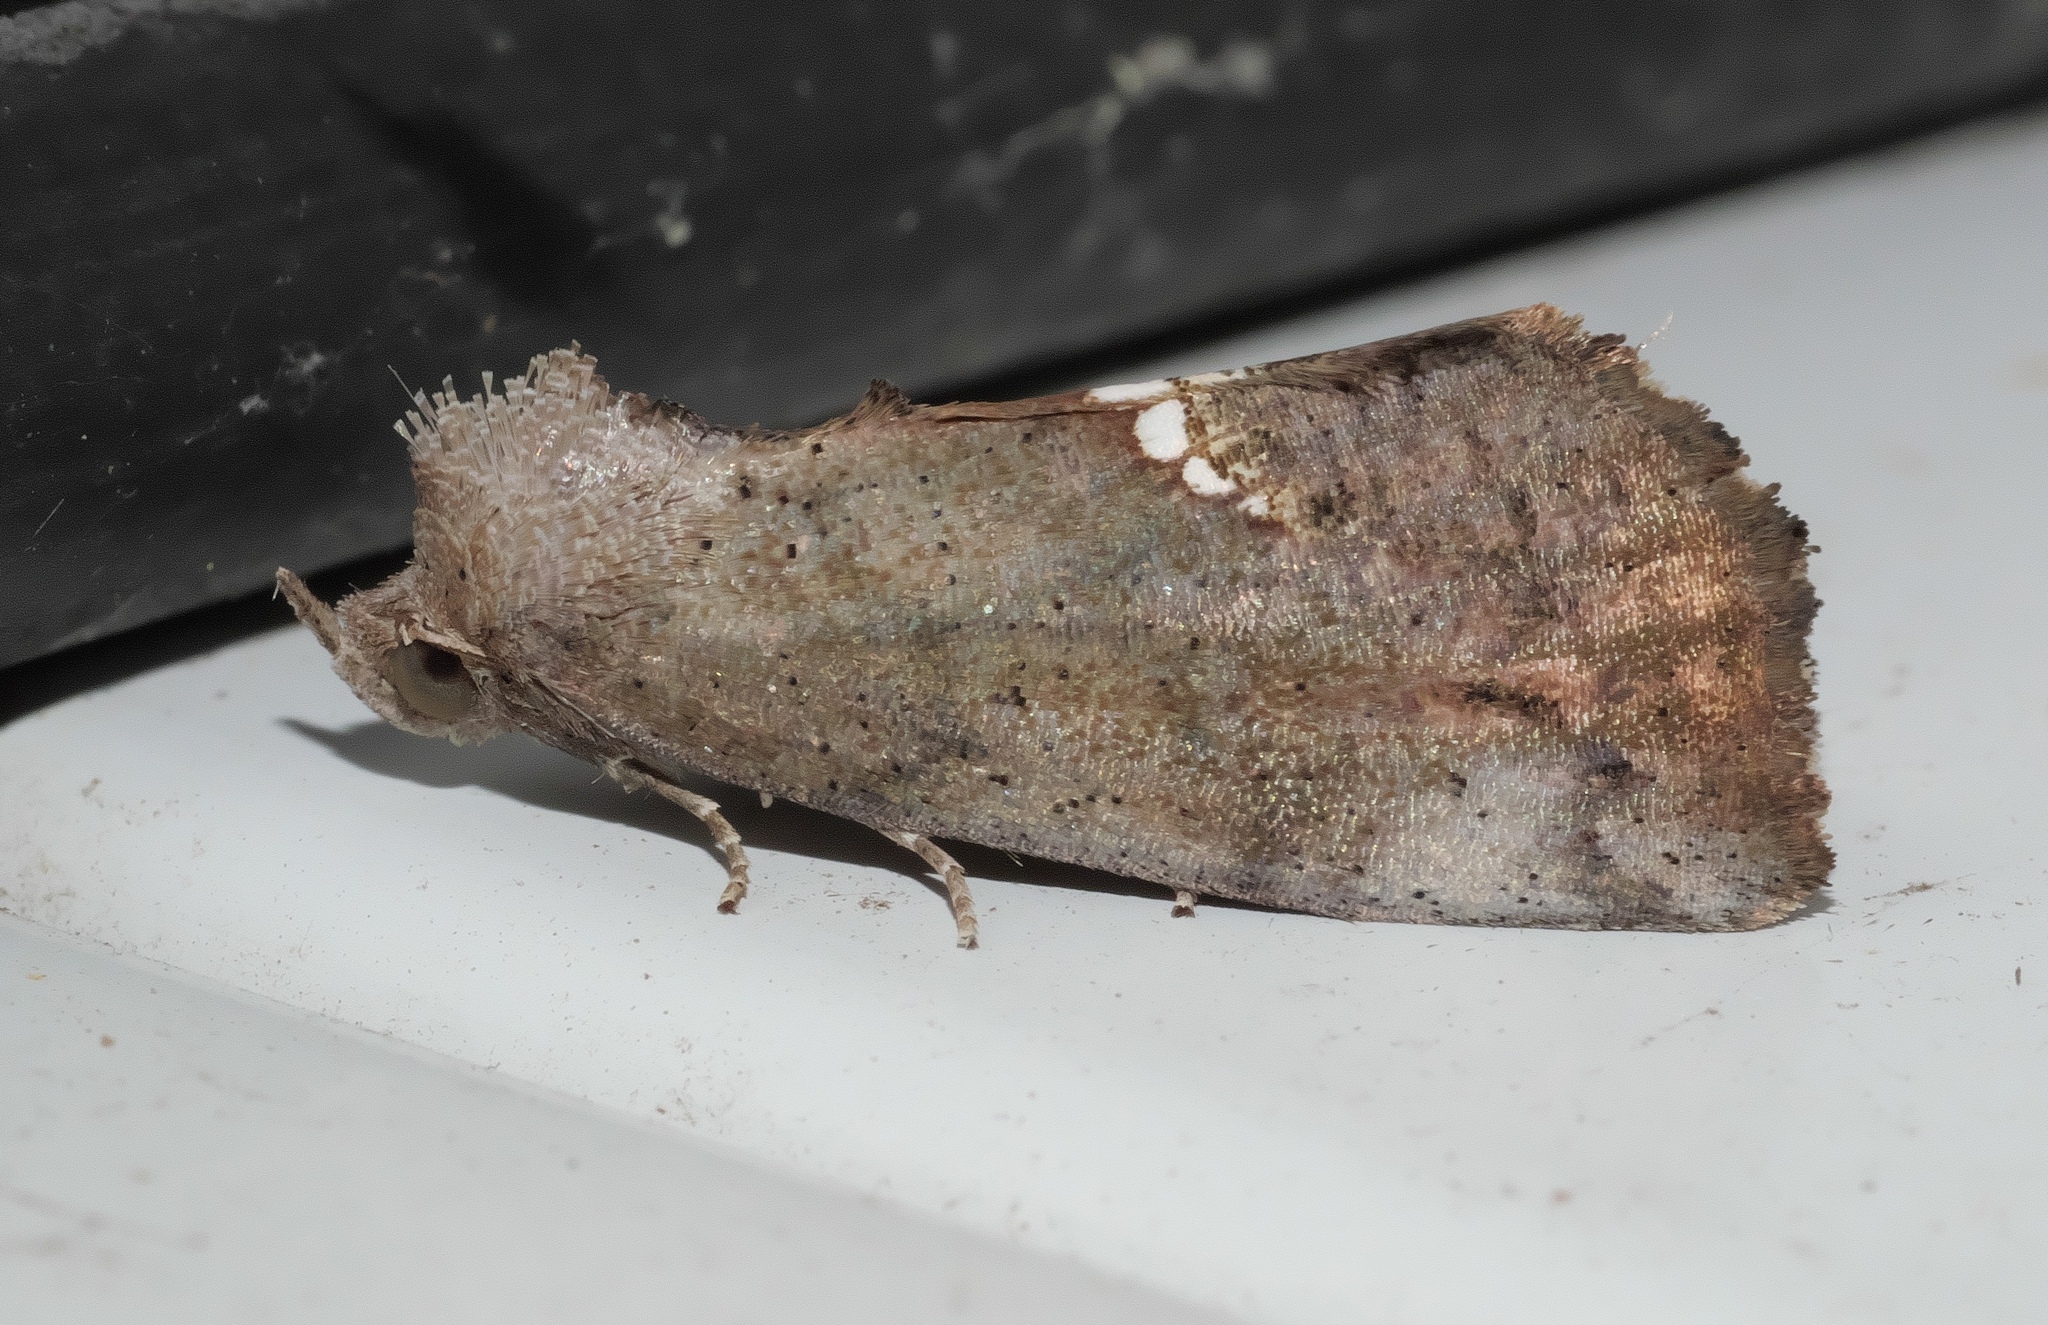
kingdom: Animalia
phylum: Arthropoda
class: Insecta
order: Lepidoptera
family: Erebidae
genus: Hypsoropha
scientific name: Hypsoropha hormos
